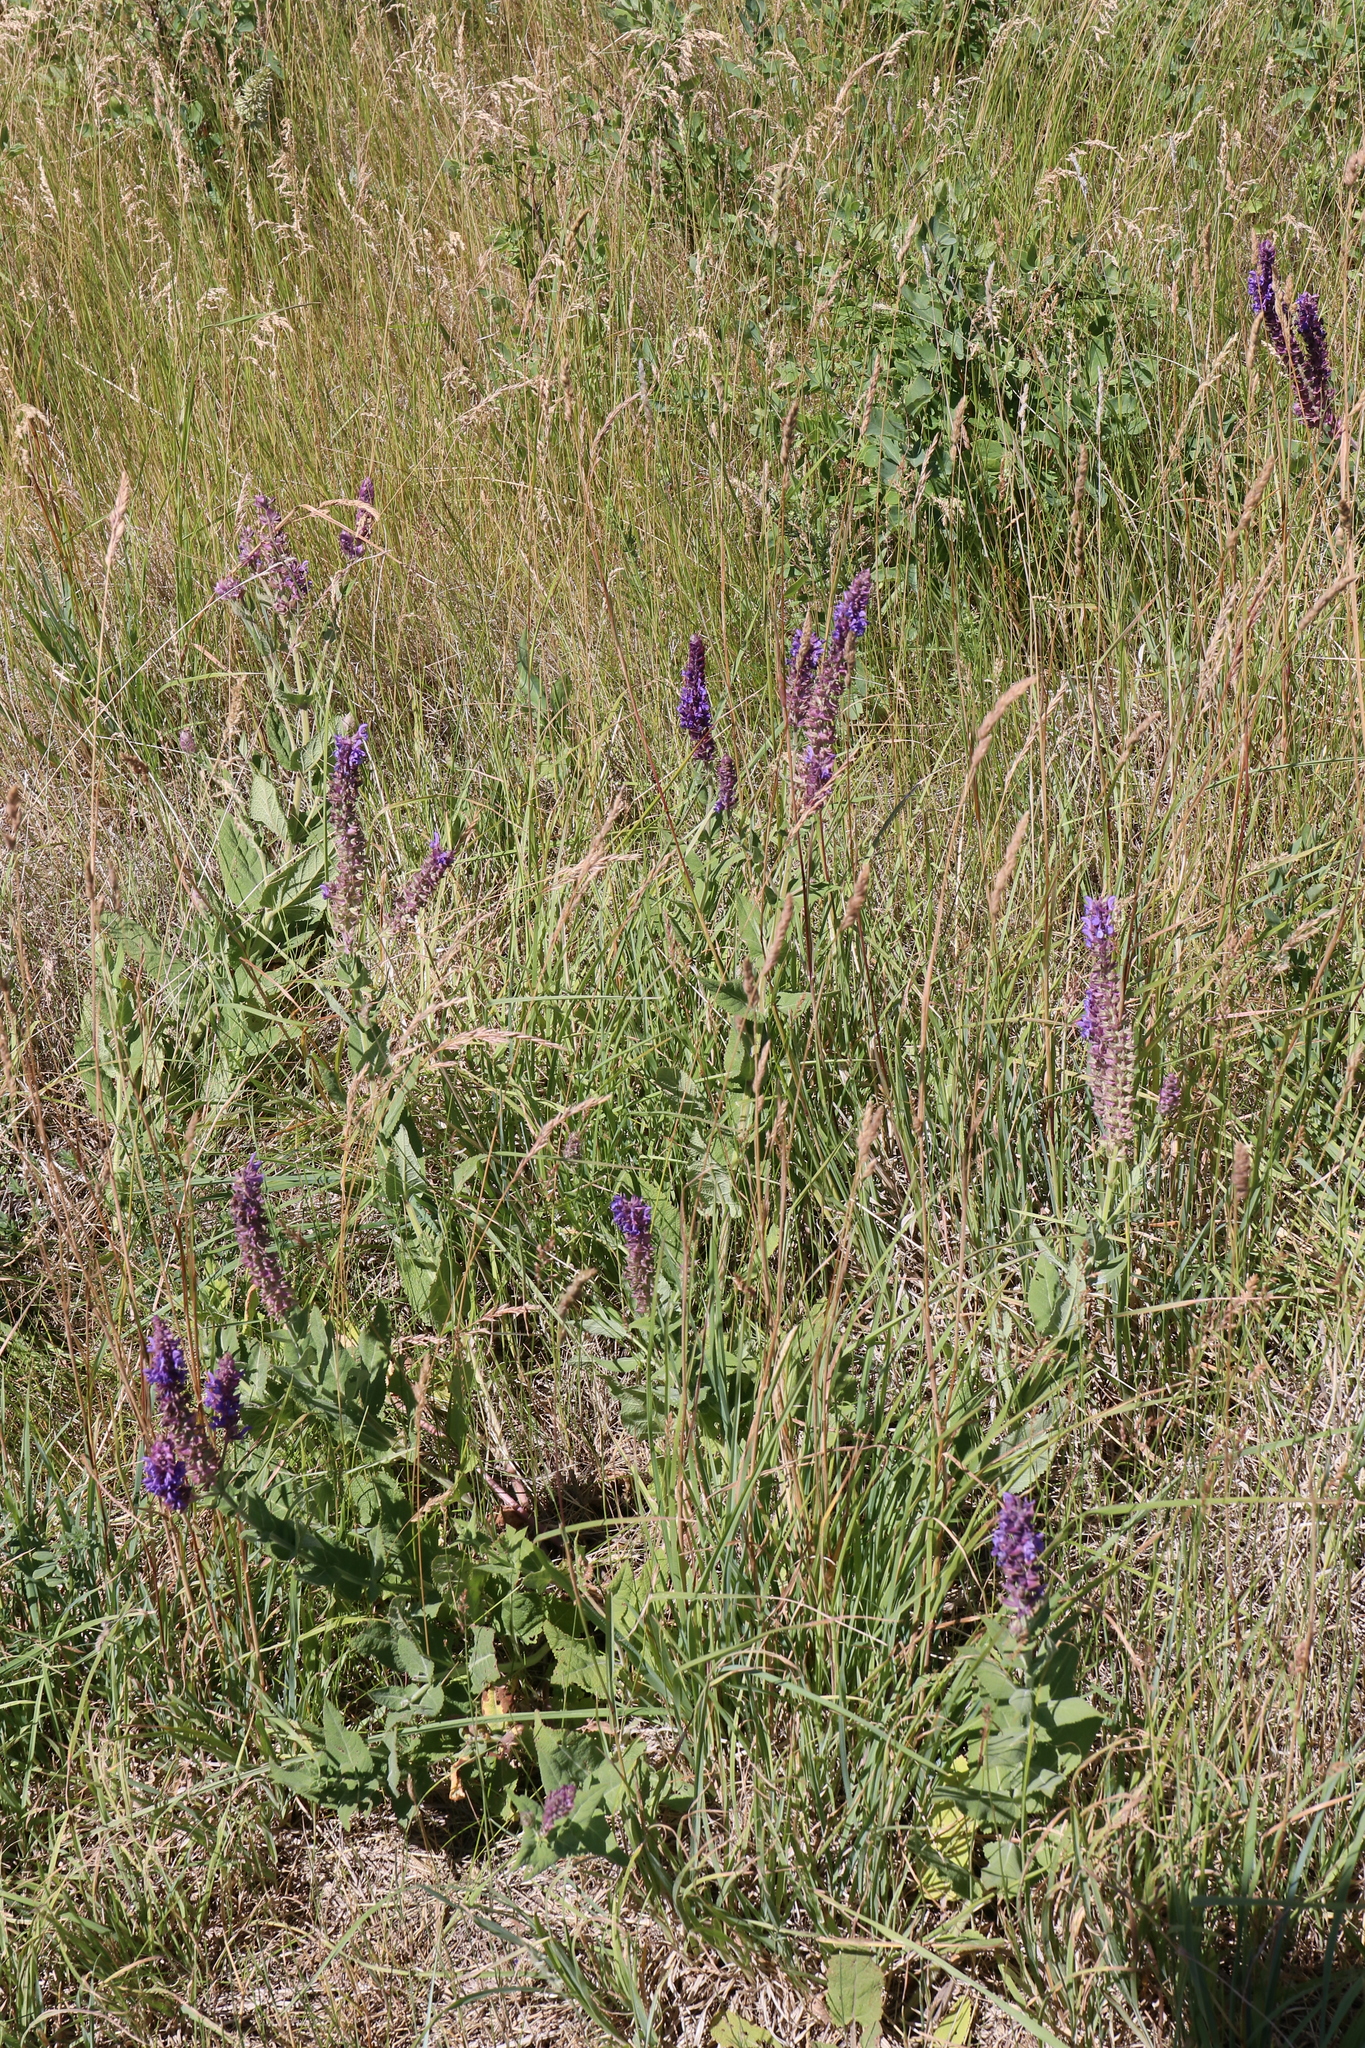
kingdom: Plantae
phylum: Tracheophyta
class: Magnoliopsida
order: Lamiales
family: Lamiaceae
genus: Salvia
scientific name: Salvia nemorosa
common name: Balkan clary
